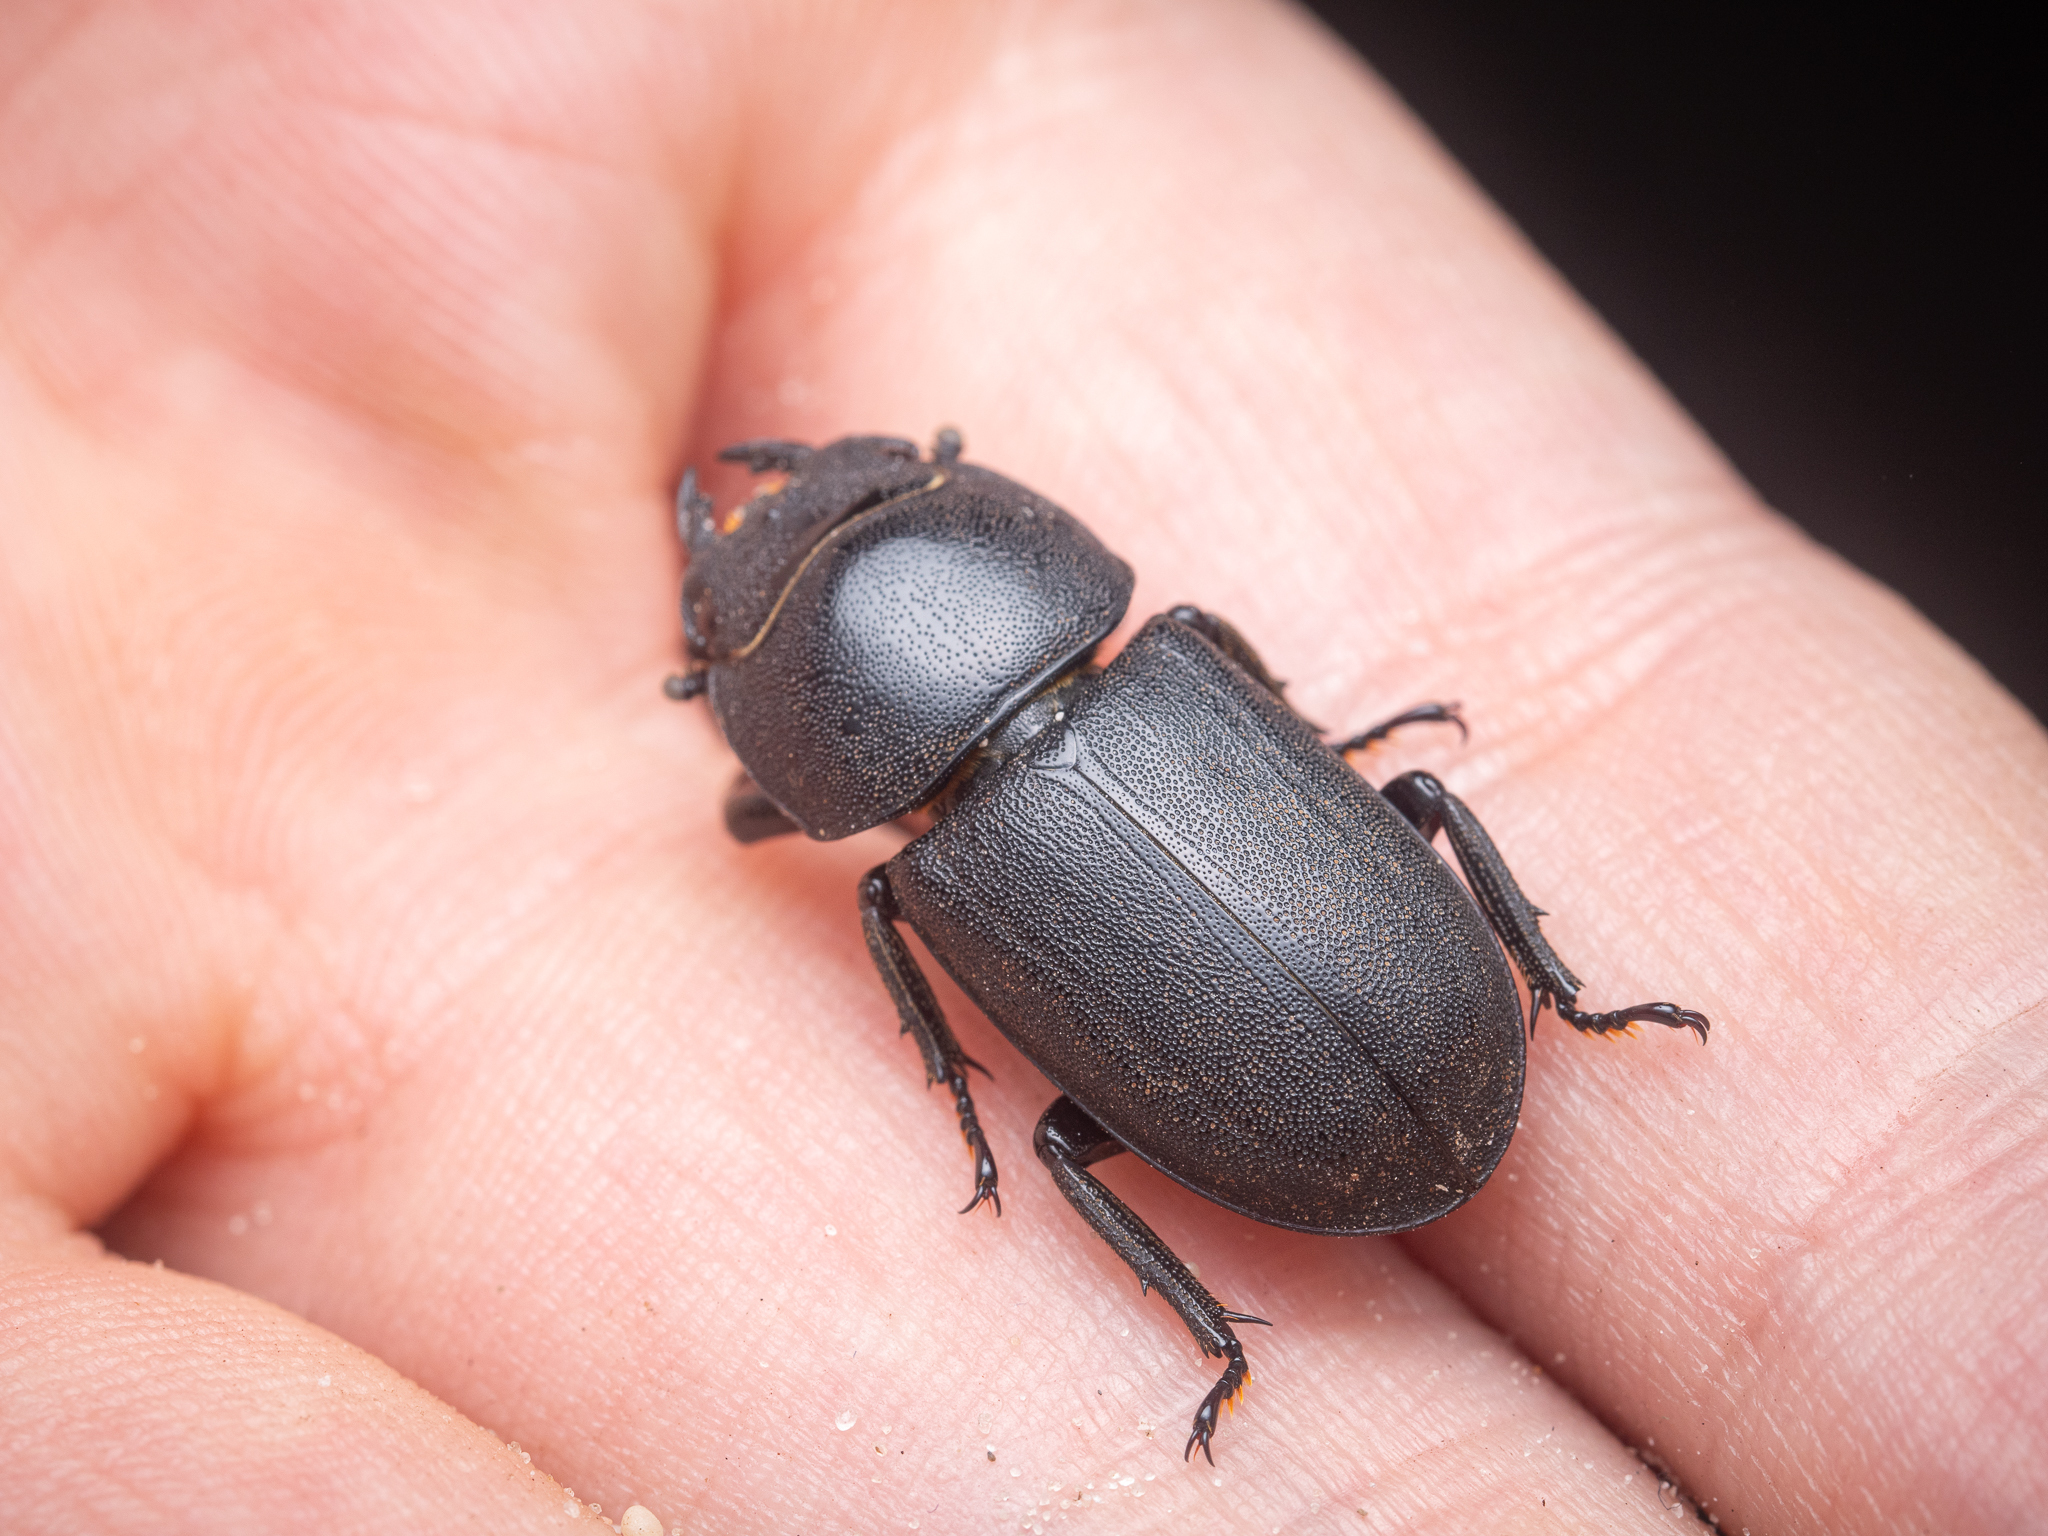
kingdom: Animalia
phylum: Arthropoda
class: Insecta
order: Coleoptera
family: Lucanidae
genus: Dorcus
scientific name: Dorcus parallelipipedus
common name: Lesser stag beetle
